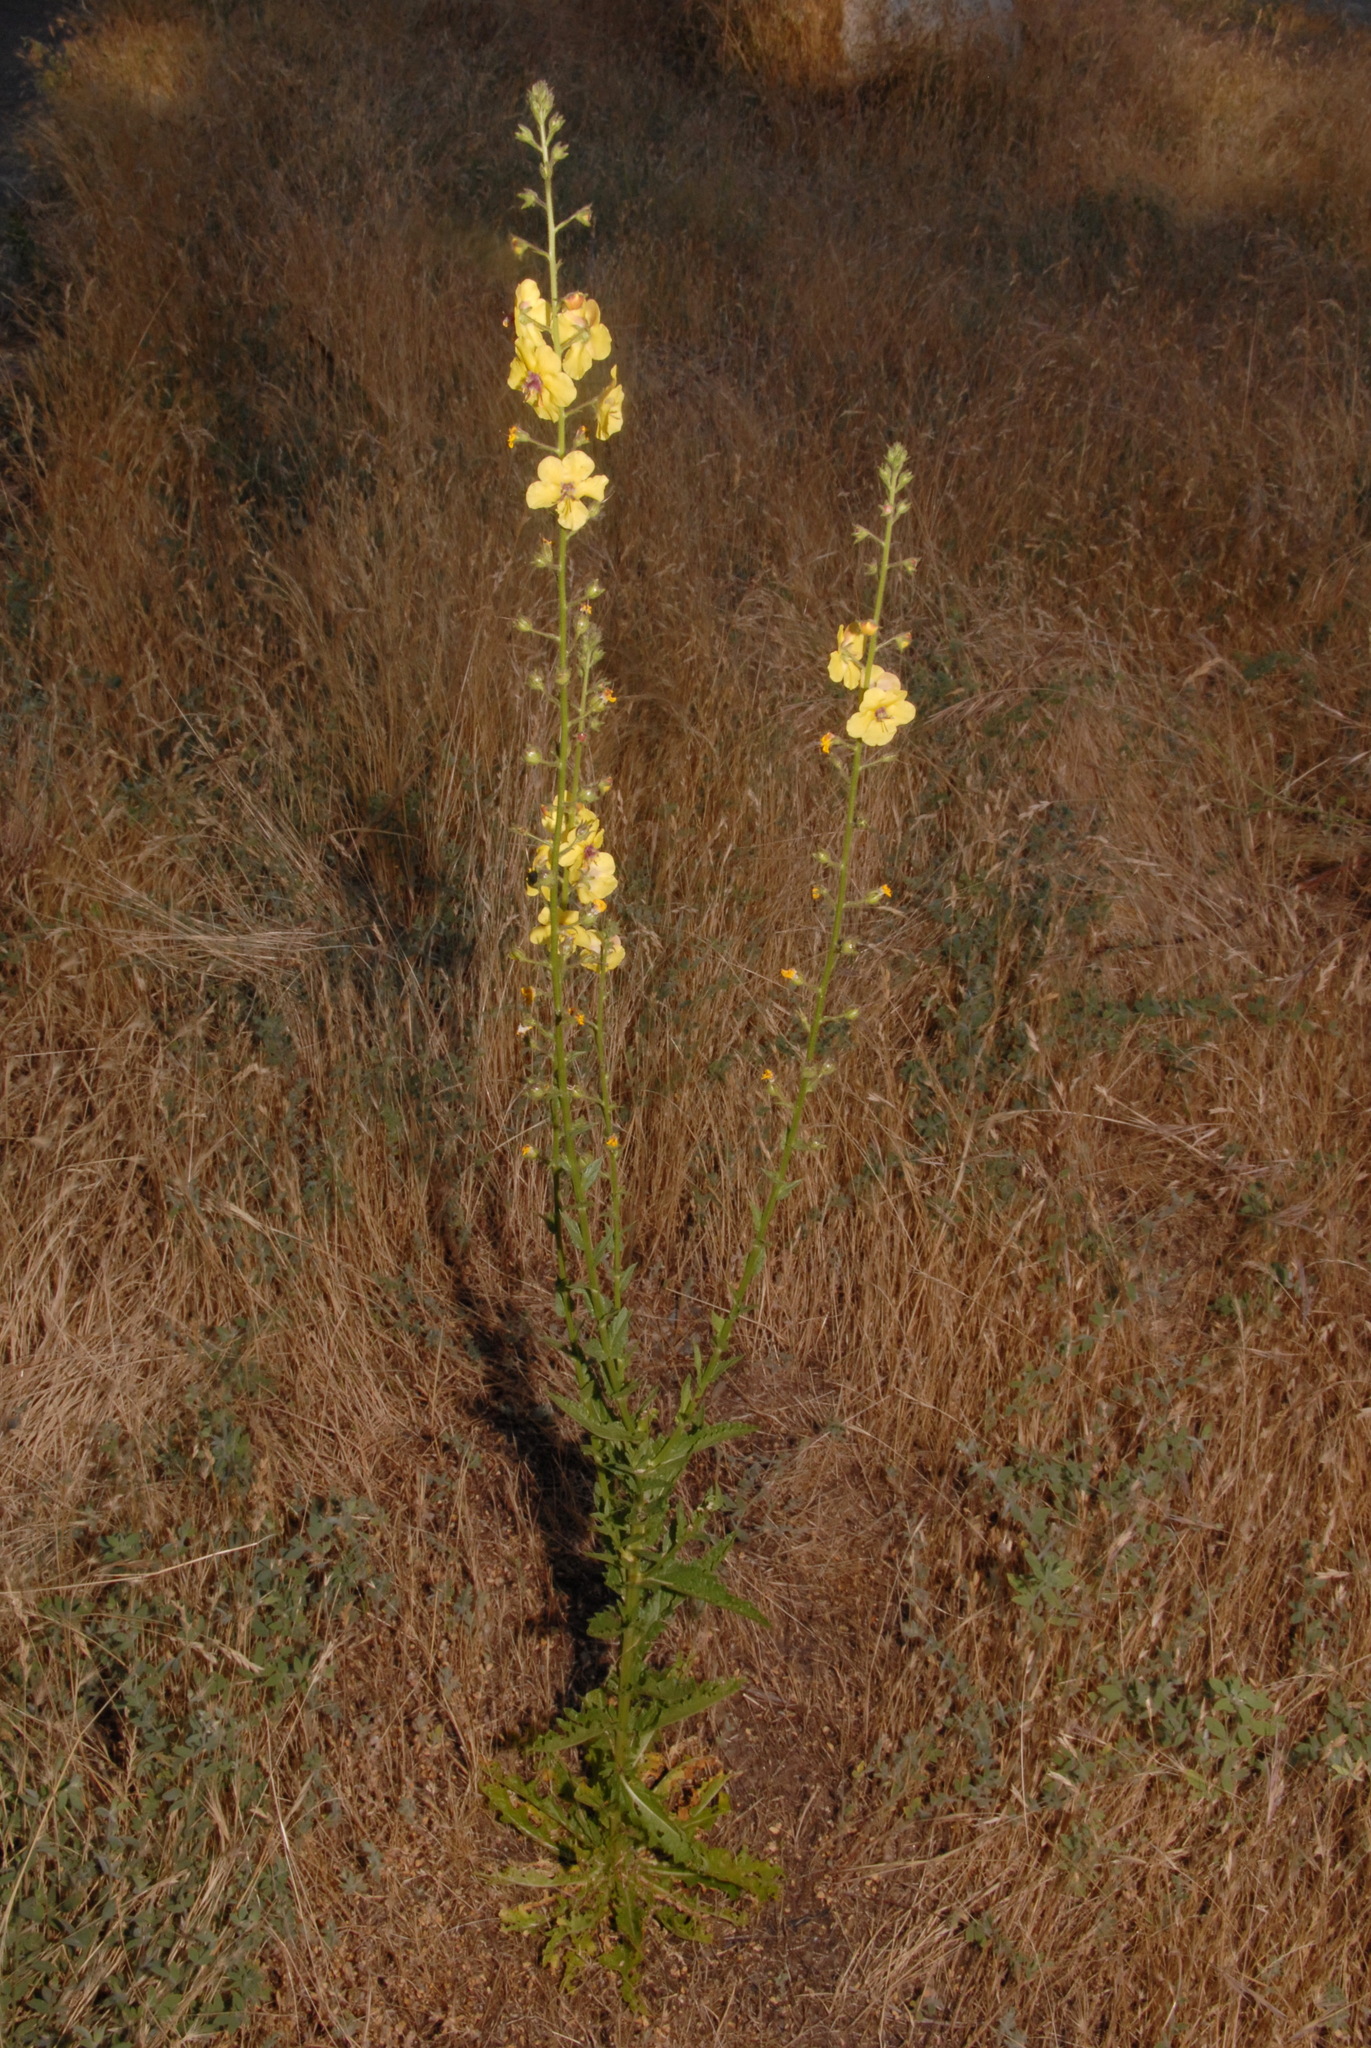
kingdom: Plantae
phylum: Tracheophyta
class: Magnoliopsida
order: Lamiales
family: Scrophulariaceae
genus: Verbascum
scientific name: Verbascum blattaria
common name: Moth mullein
